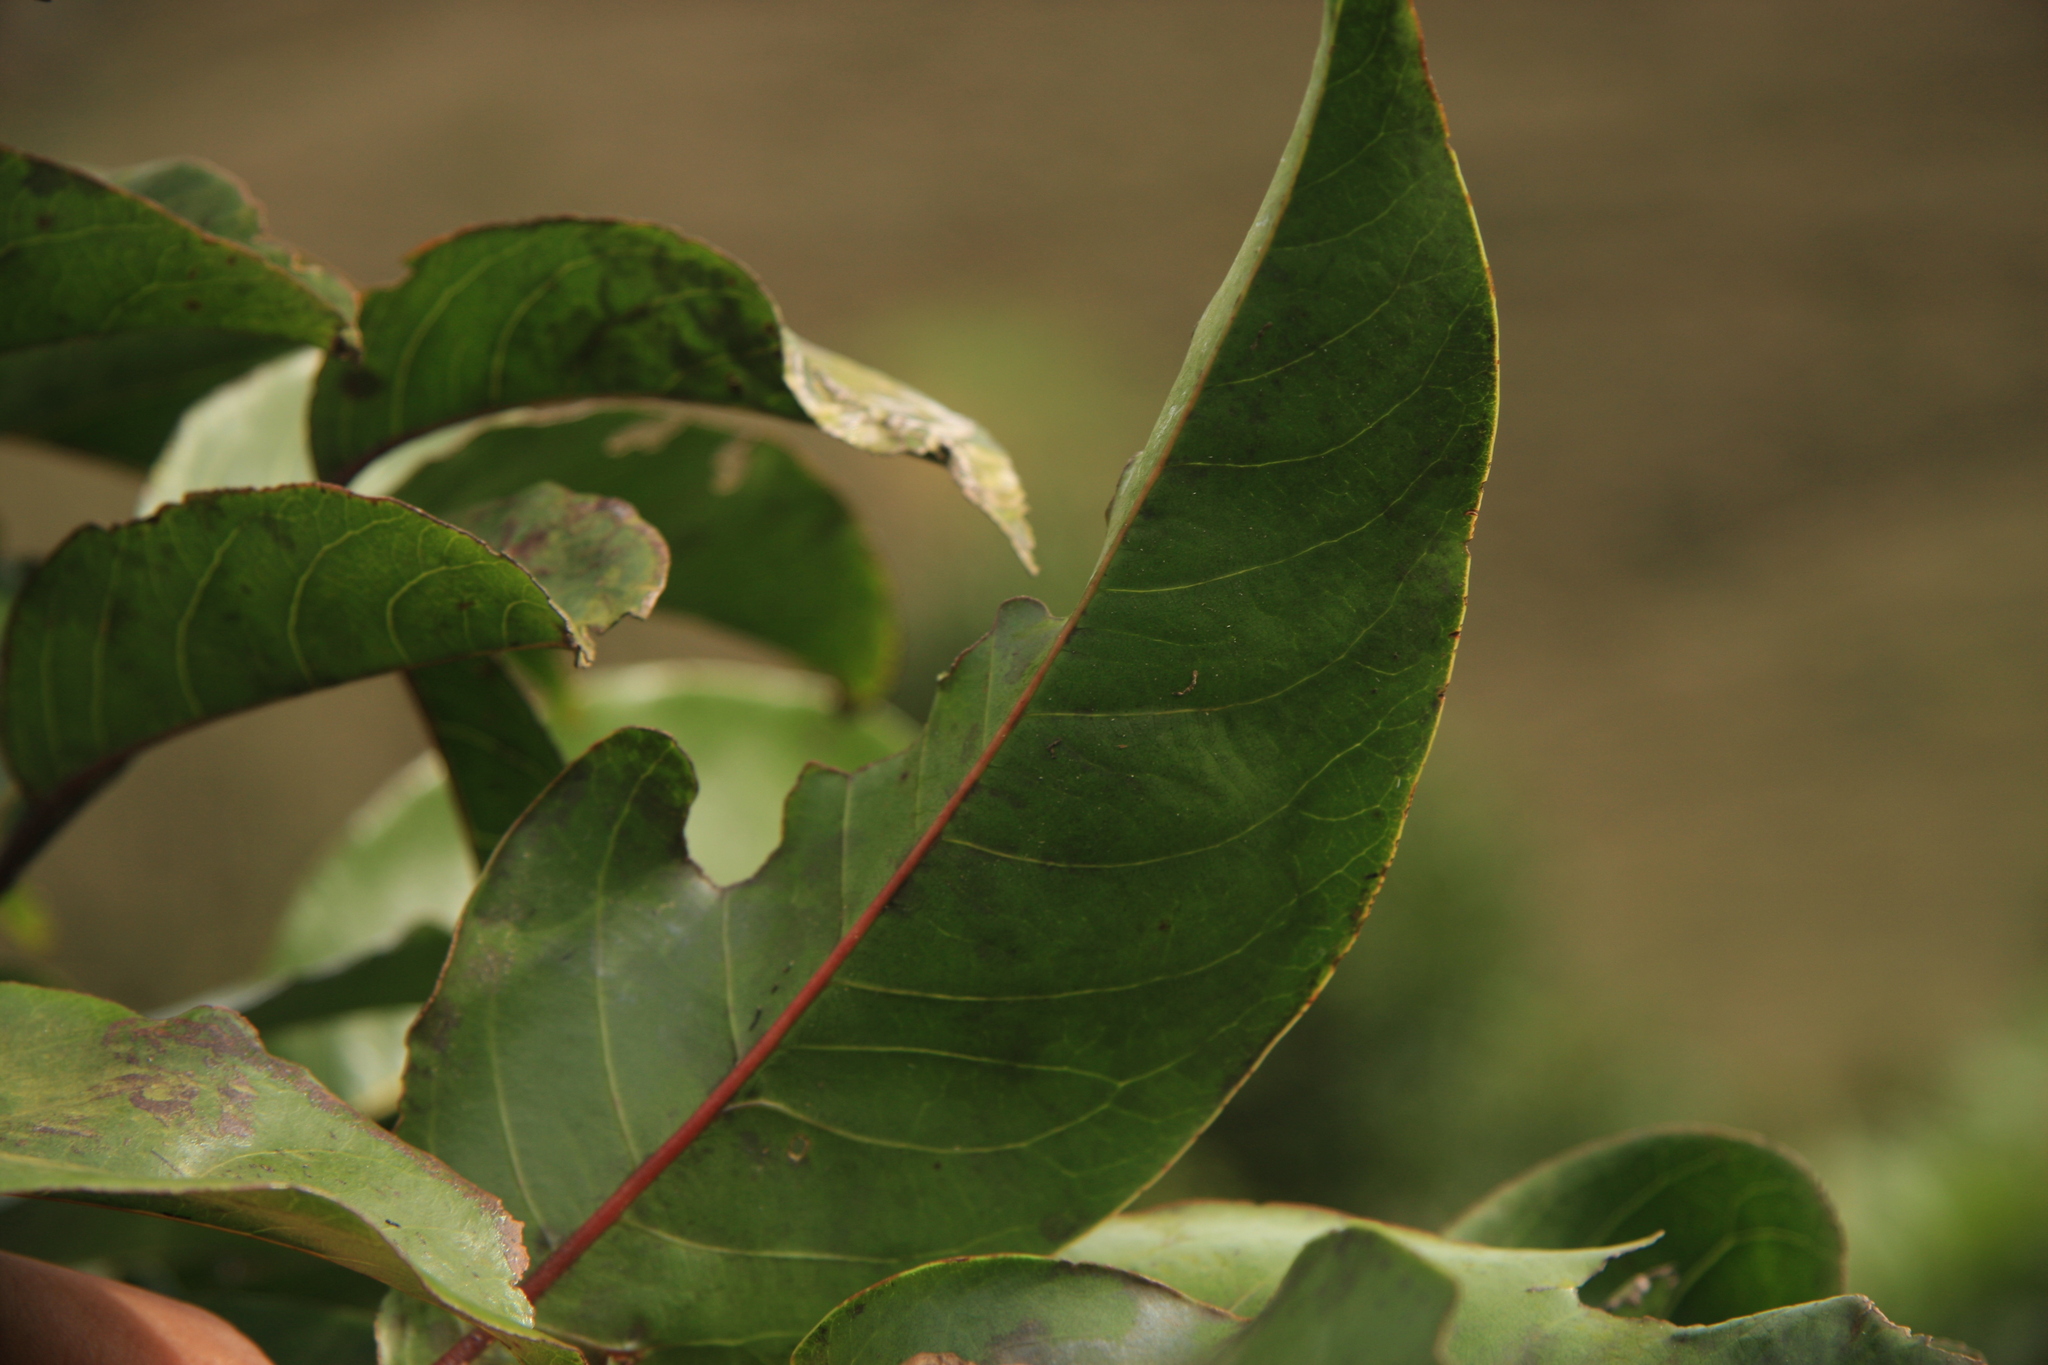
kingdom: Plantae
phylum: Tracheophyta
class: Magnoliopsida
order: Malpighiales
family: Salicaceae
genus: Casearia
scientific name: Casearia rubescens
